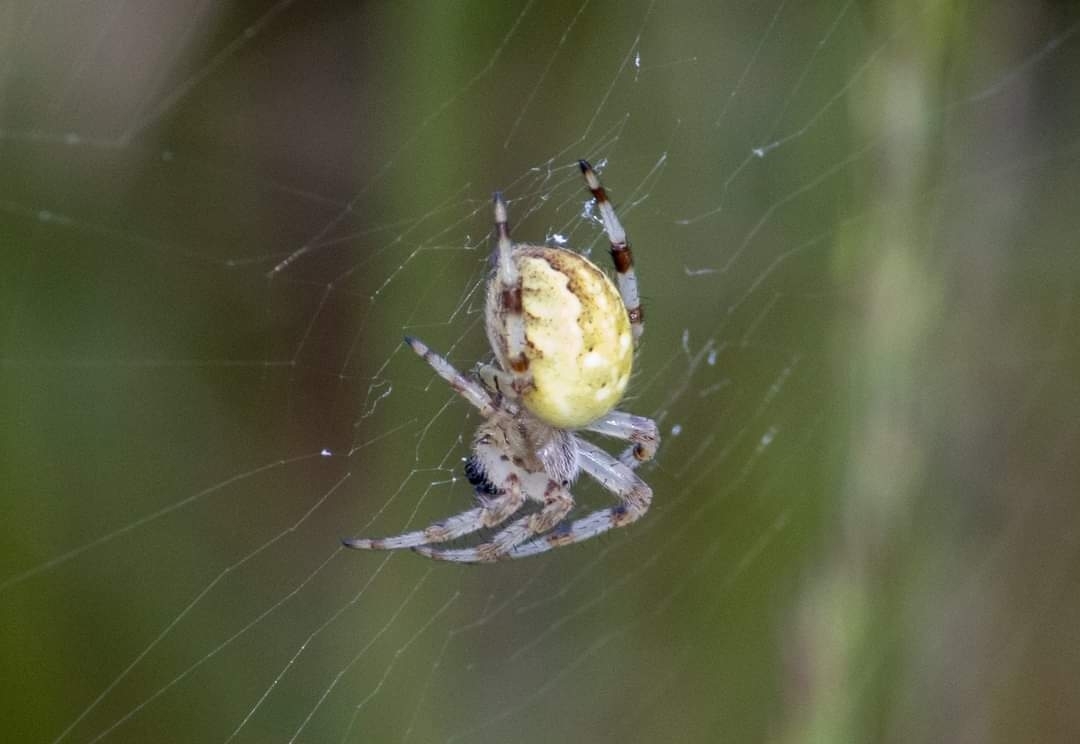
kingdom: Animalia
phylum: Arthropoda
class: Arachnida
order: Araneae
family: Araneidae
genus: Araneus
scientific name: Araneus quadratus
